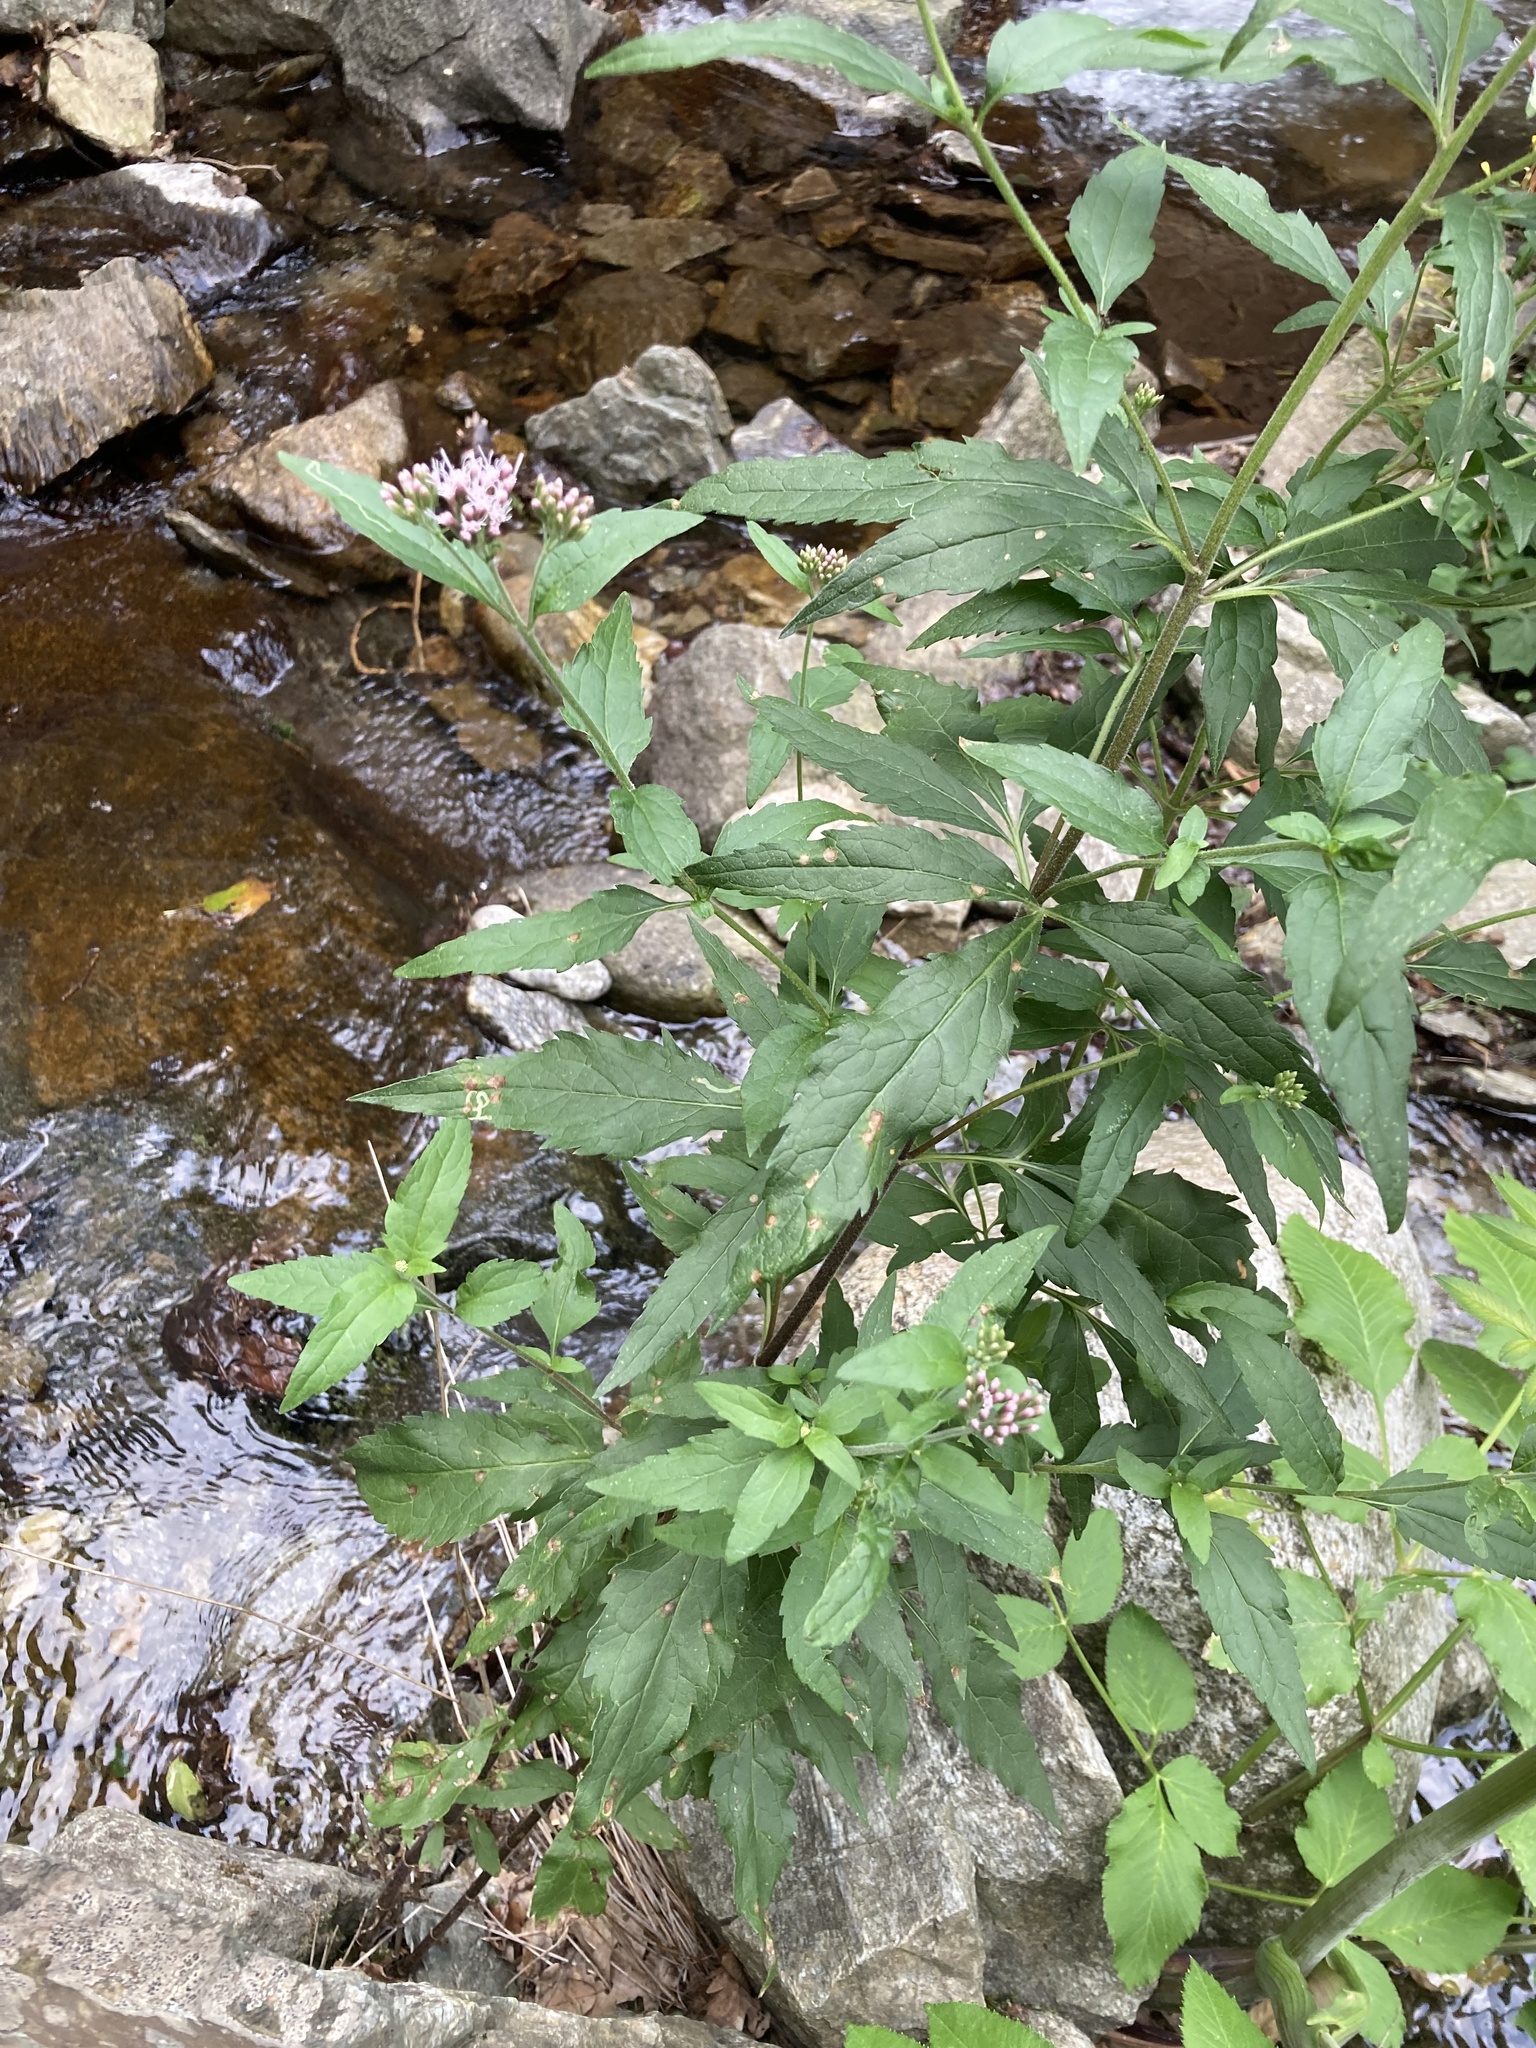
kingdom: Plantae
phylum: Tracheophyta
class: Magnoliopsida
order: Asterales
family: Asteraceae
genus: Eupatorium
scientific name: Eupatorium cannabinum
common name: Hemp-agrimony
